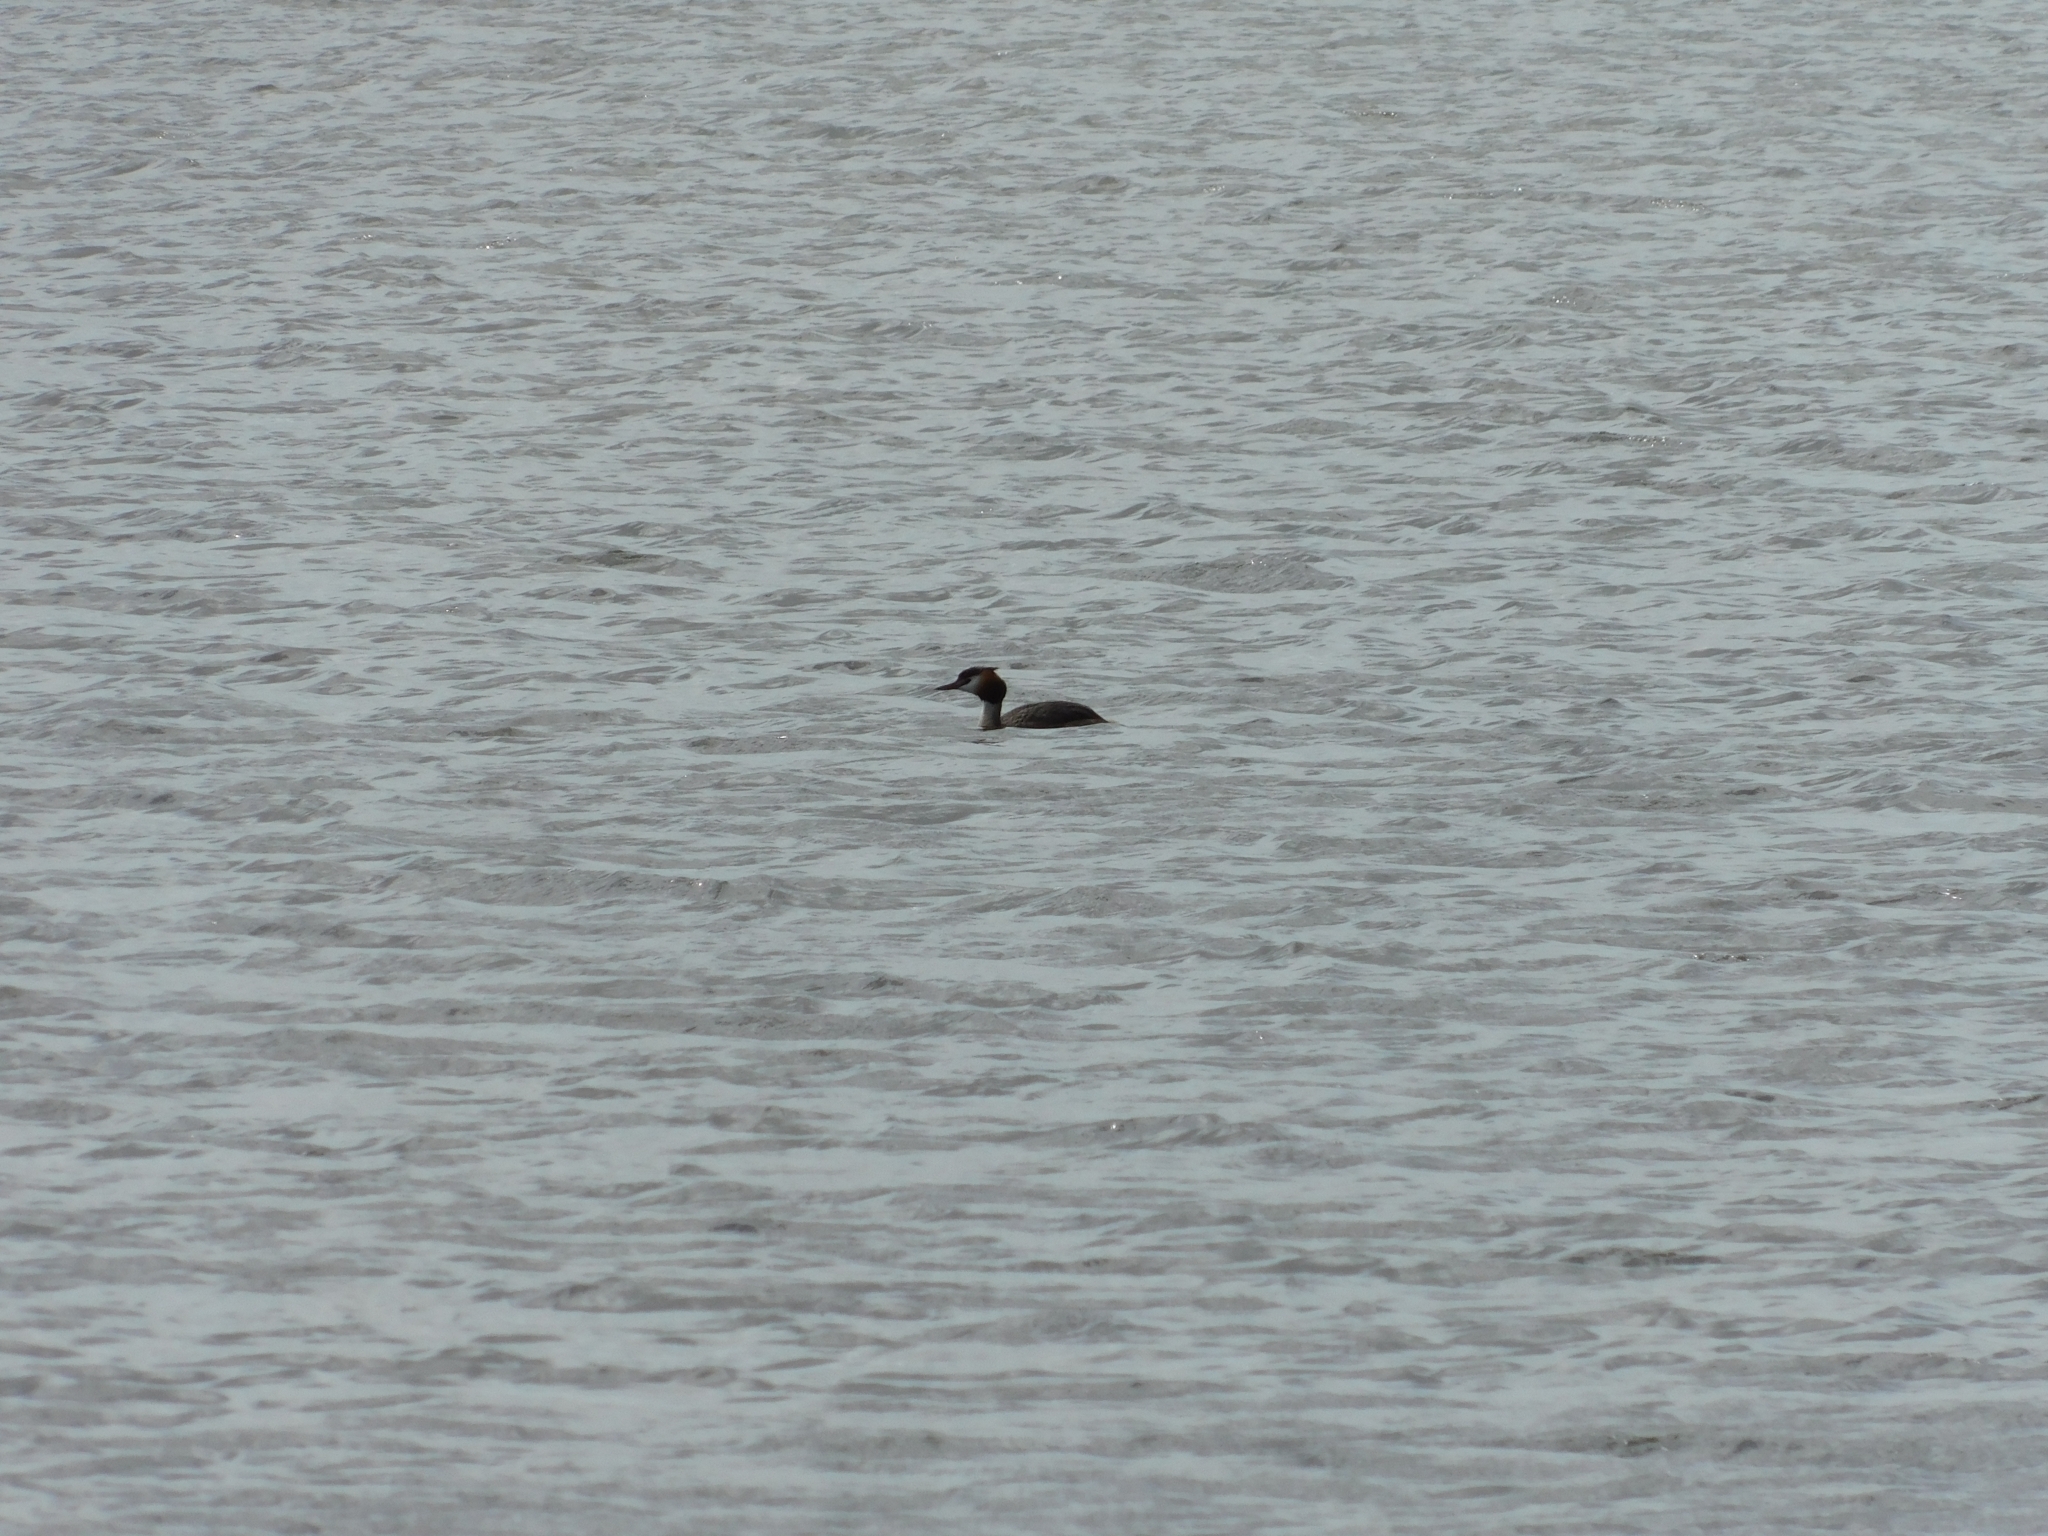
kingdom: Animalia
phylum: Chordata
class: Aves
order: Podicipediformes
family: Podicipedidae
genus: Podiceps
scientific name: Podiceps cristatus
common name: Great crested grebe
